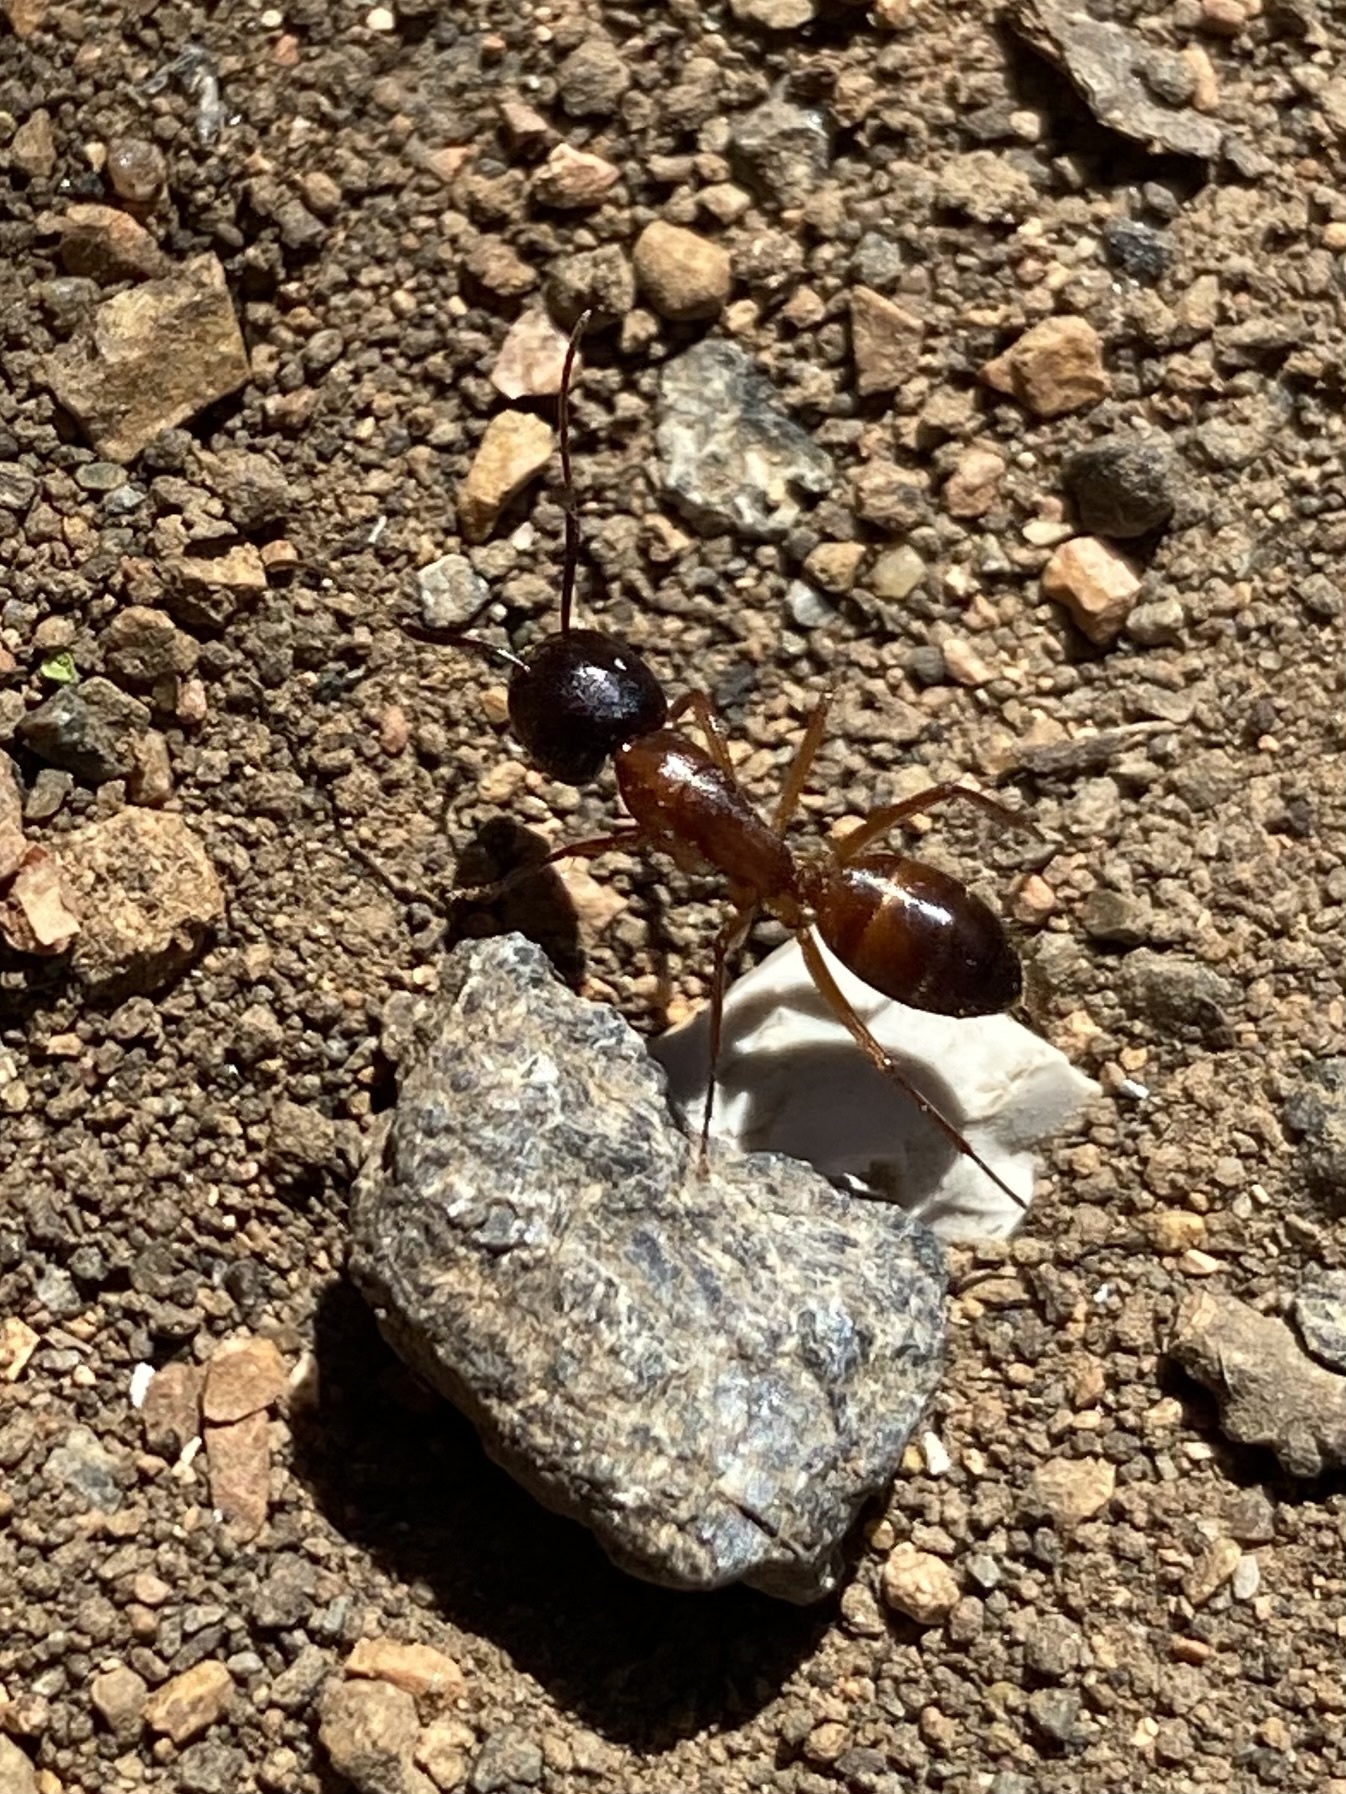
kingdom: Animalia
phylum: Arthropoda
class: Insecta
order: Hymenoptera
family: Formicidae
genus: Camponotus
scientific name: Camponotus sansabeanus
